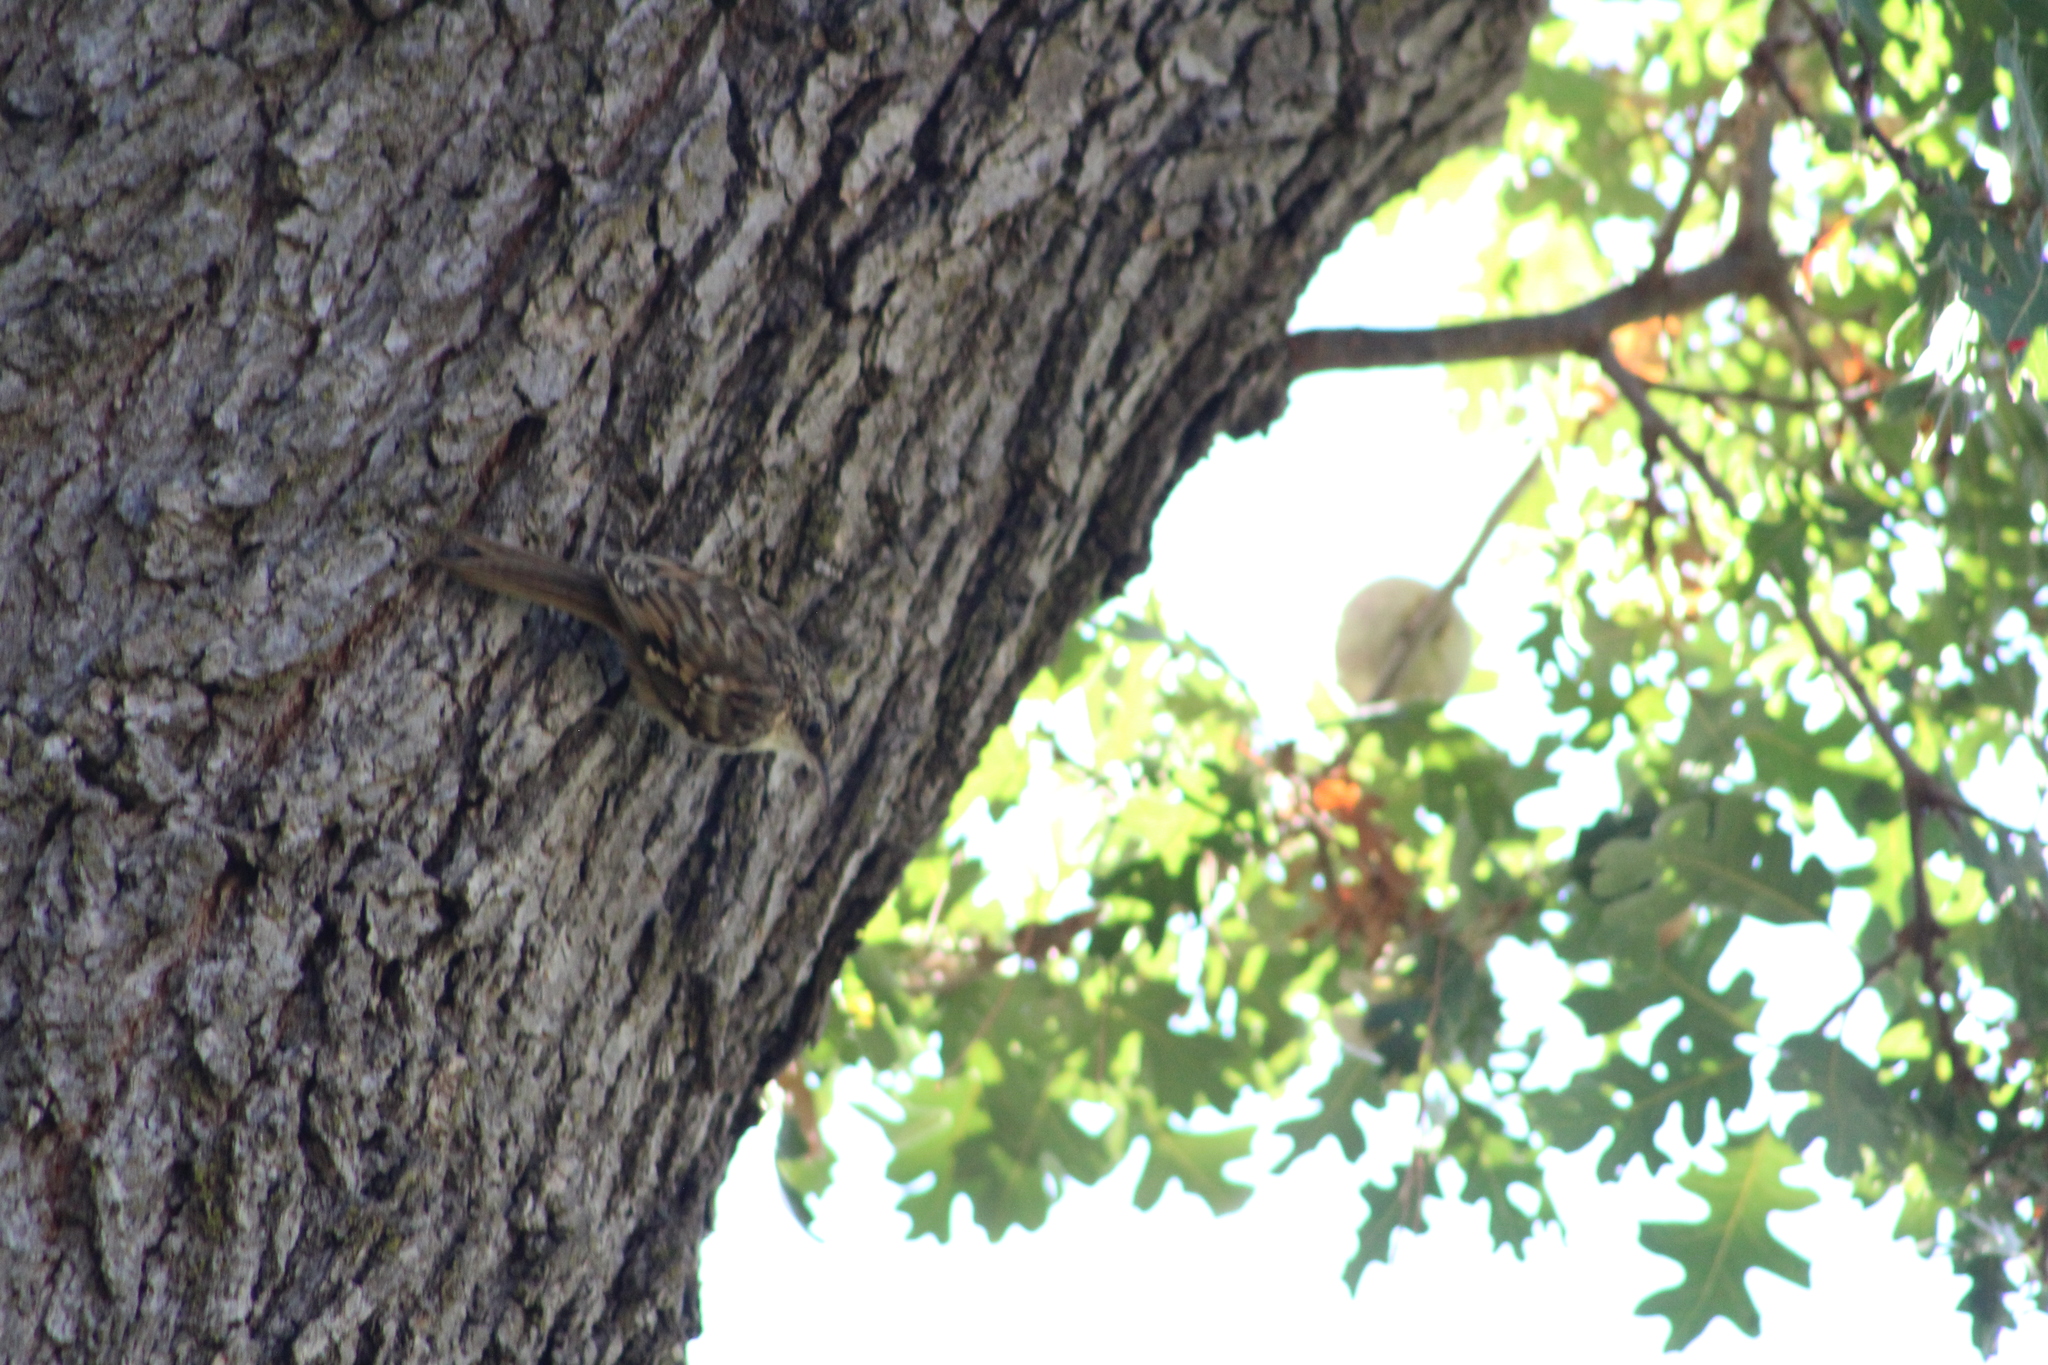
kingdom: Animalia
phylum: Chordata
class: Aves
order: Passeriformes
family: Certhiidae
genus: Certhia
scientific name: Certhia americana
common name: Brown creeper
